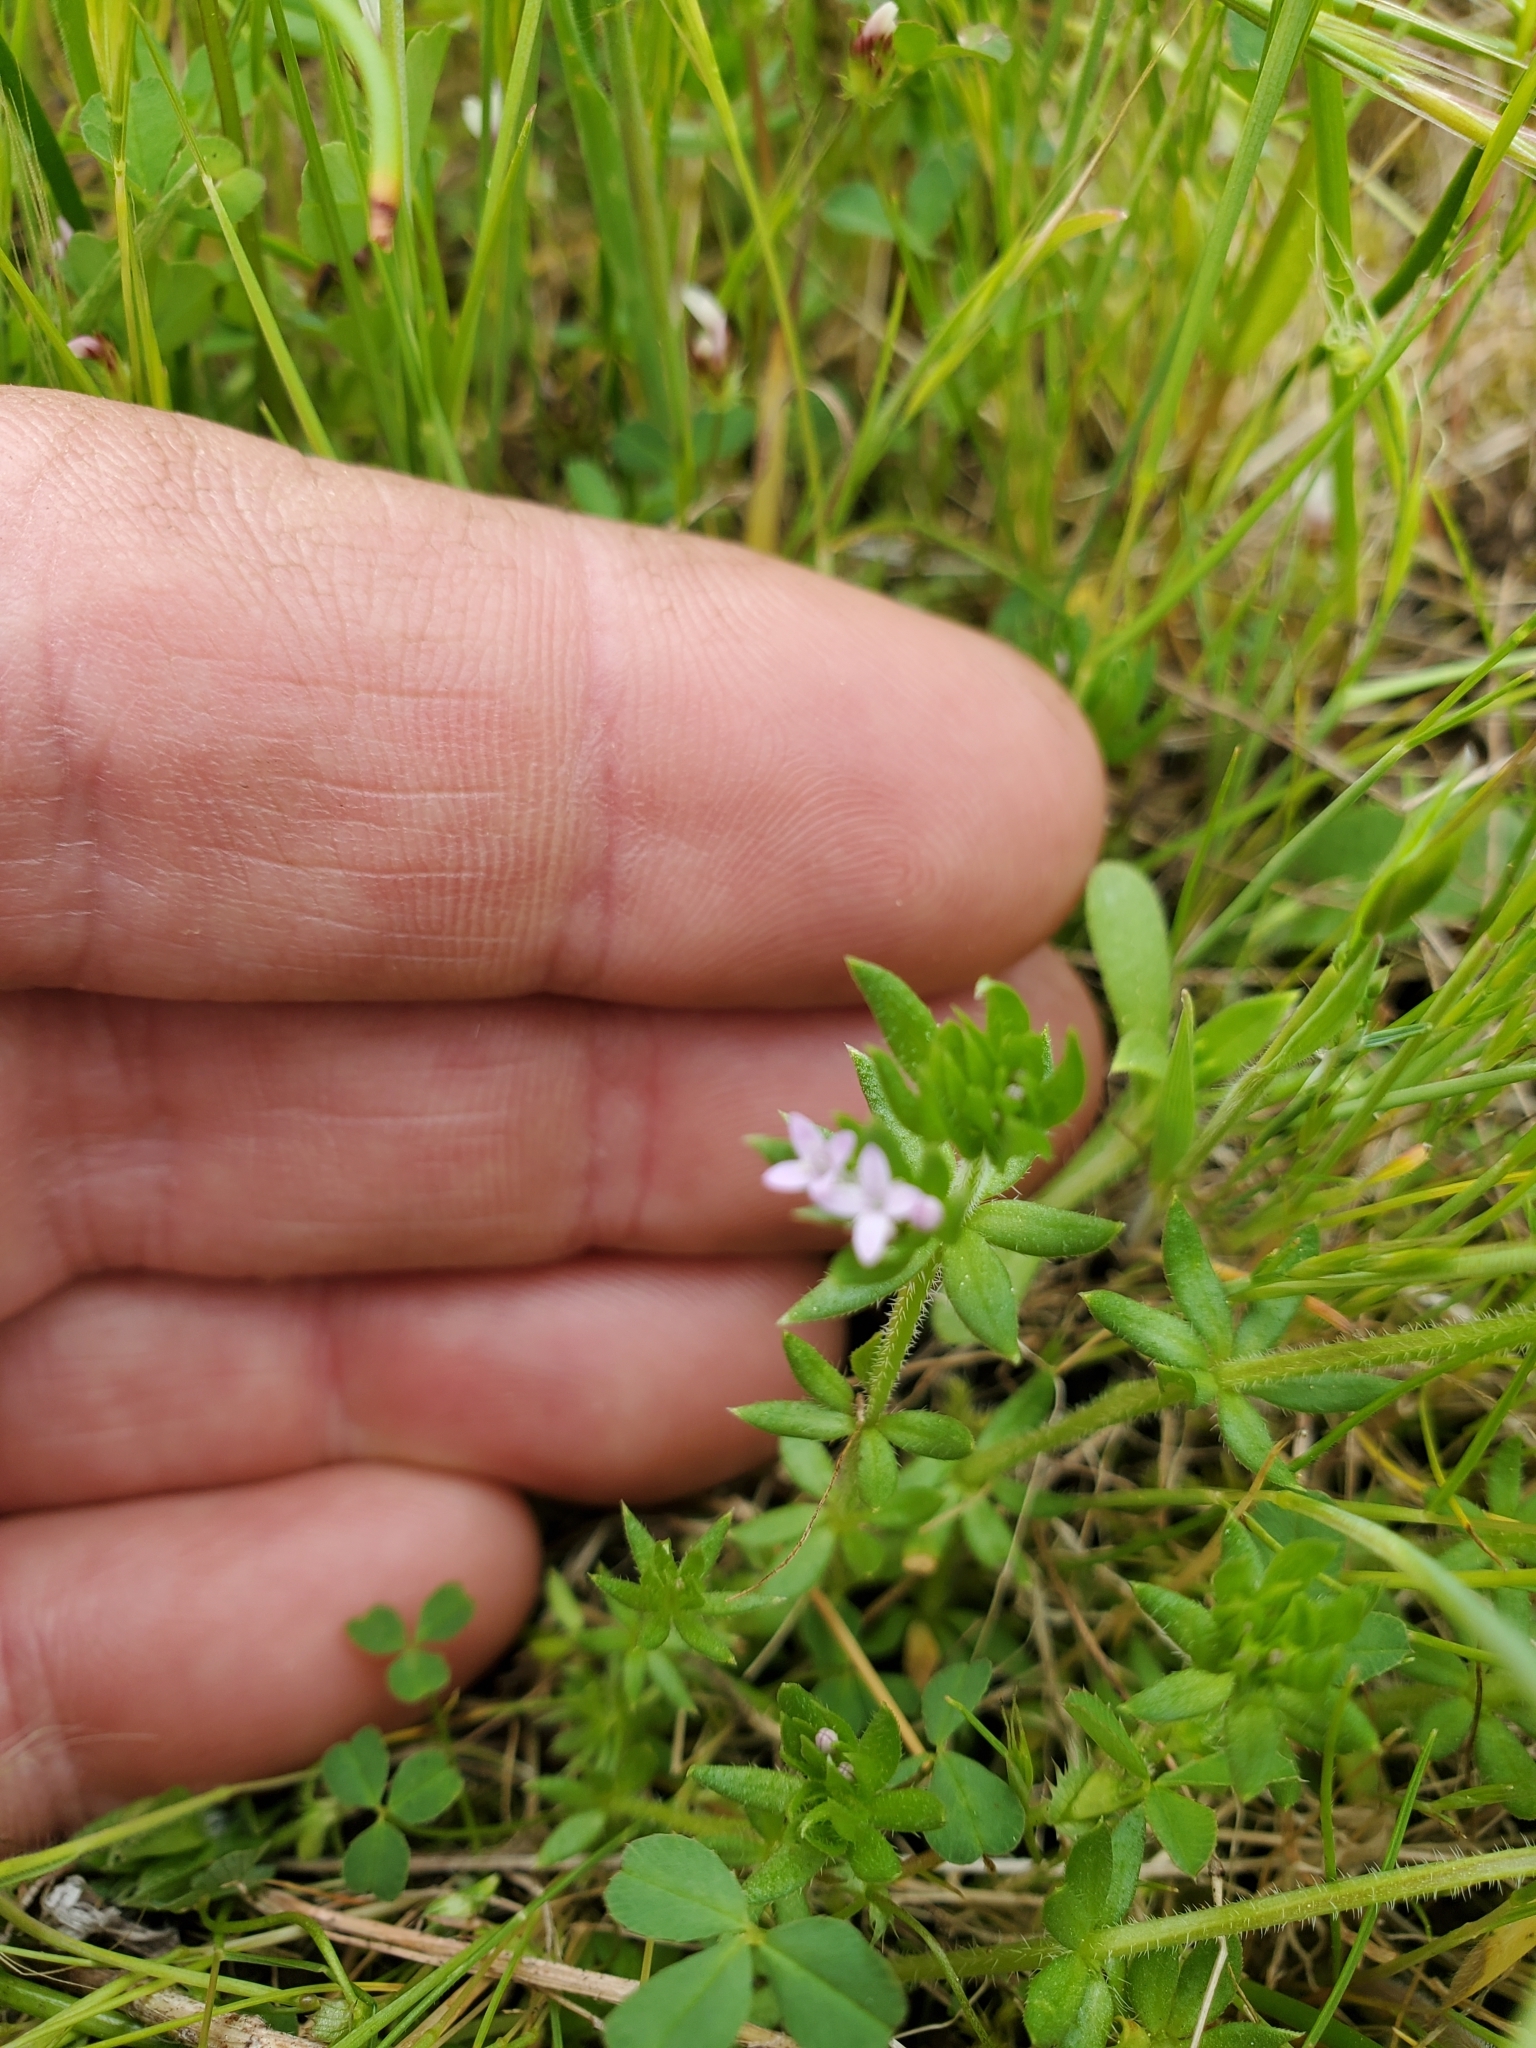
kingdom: Plantae
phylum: Tracheophyta
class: Magnoliopsida
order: Gentianales
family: Rubiaceae
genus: Sherardia
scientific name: Sherardia arvensis
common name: Field madder
